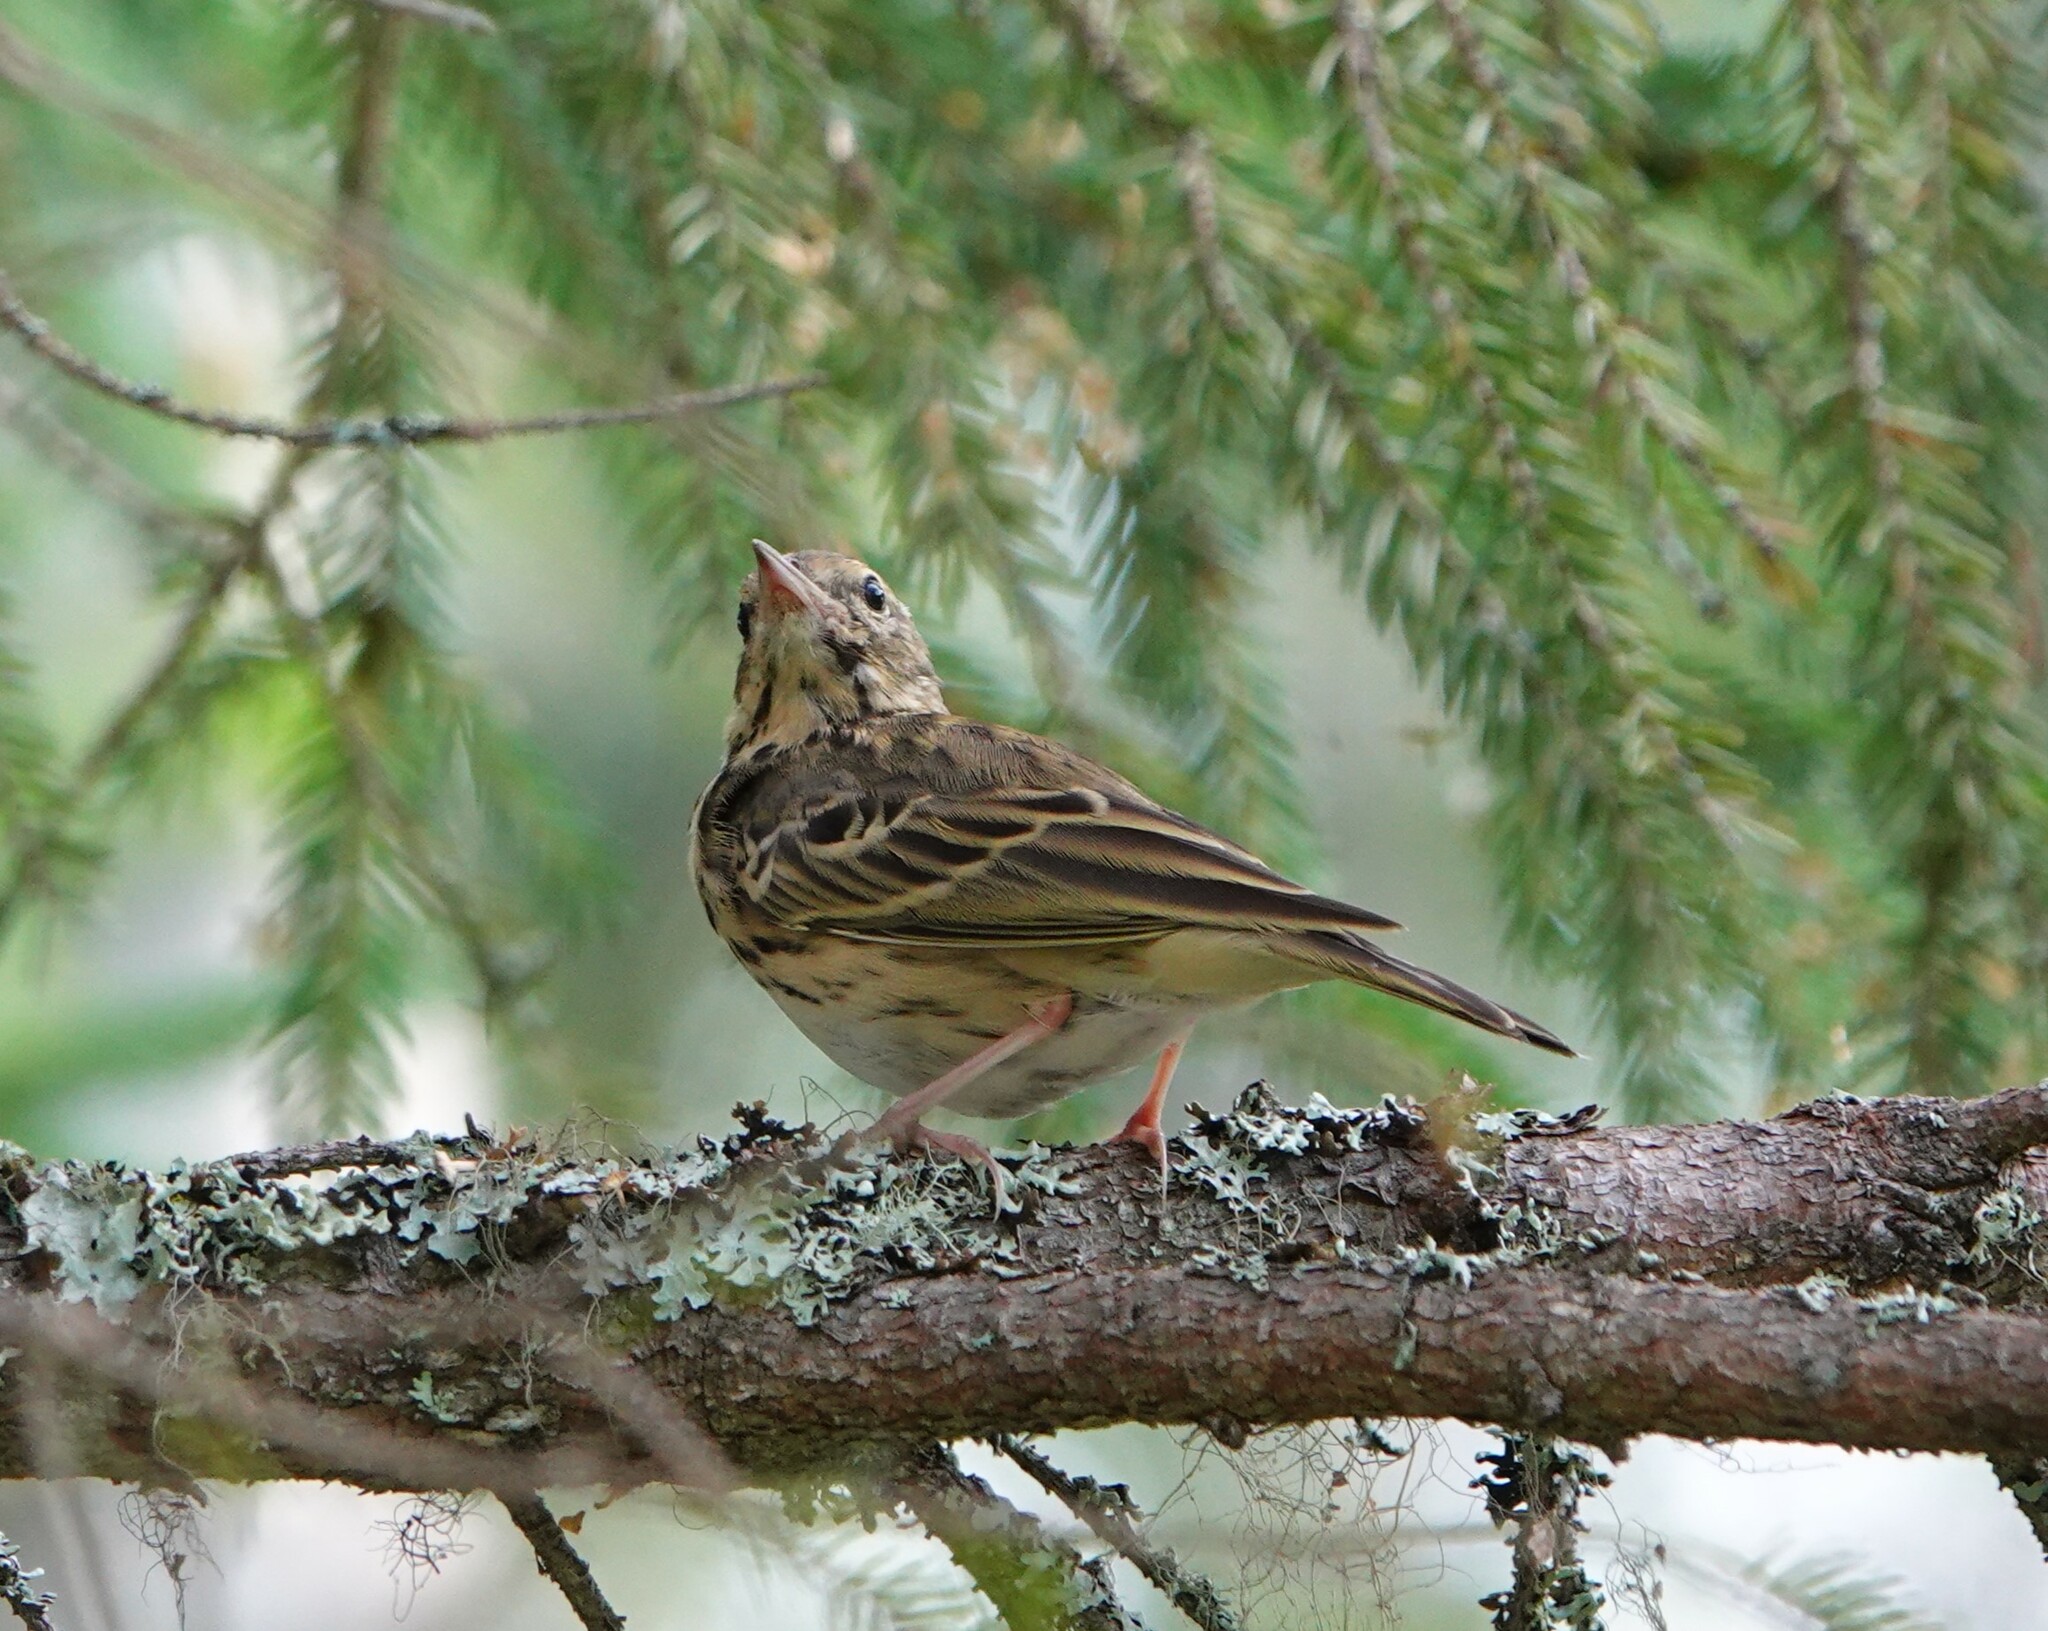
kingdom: Animalia
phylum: Chordata
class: Aves
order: Passeriformes
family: Motacillidae
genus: Anthus
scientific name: Anthus trivialis
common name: Tree pipit
